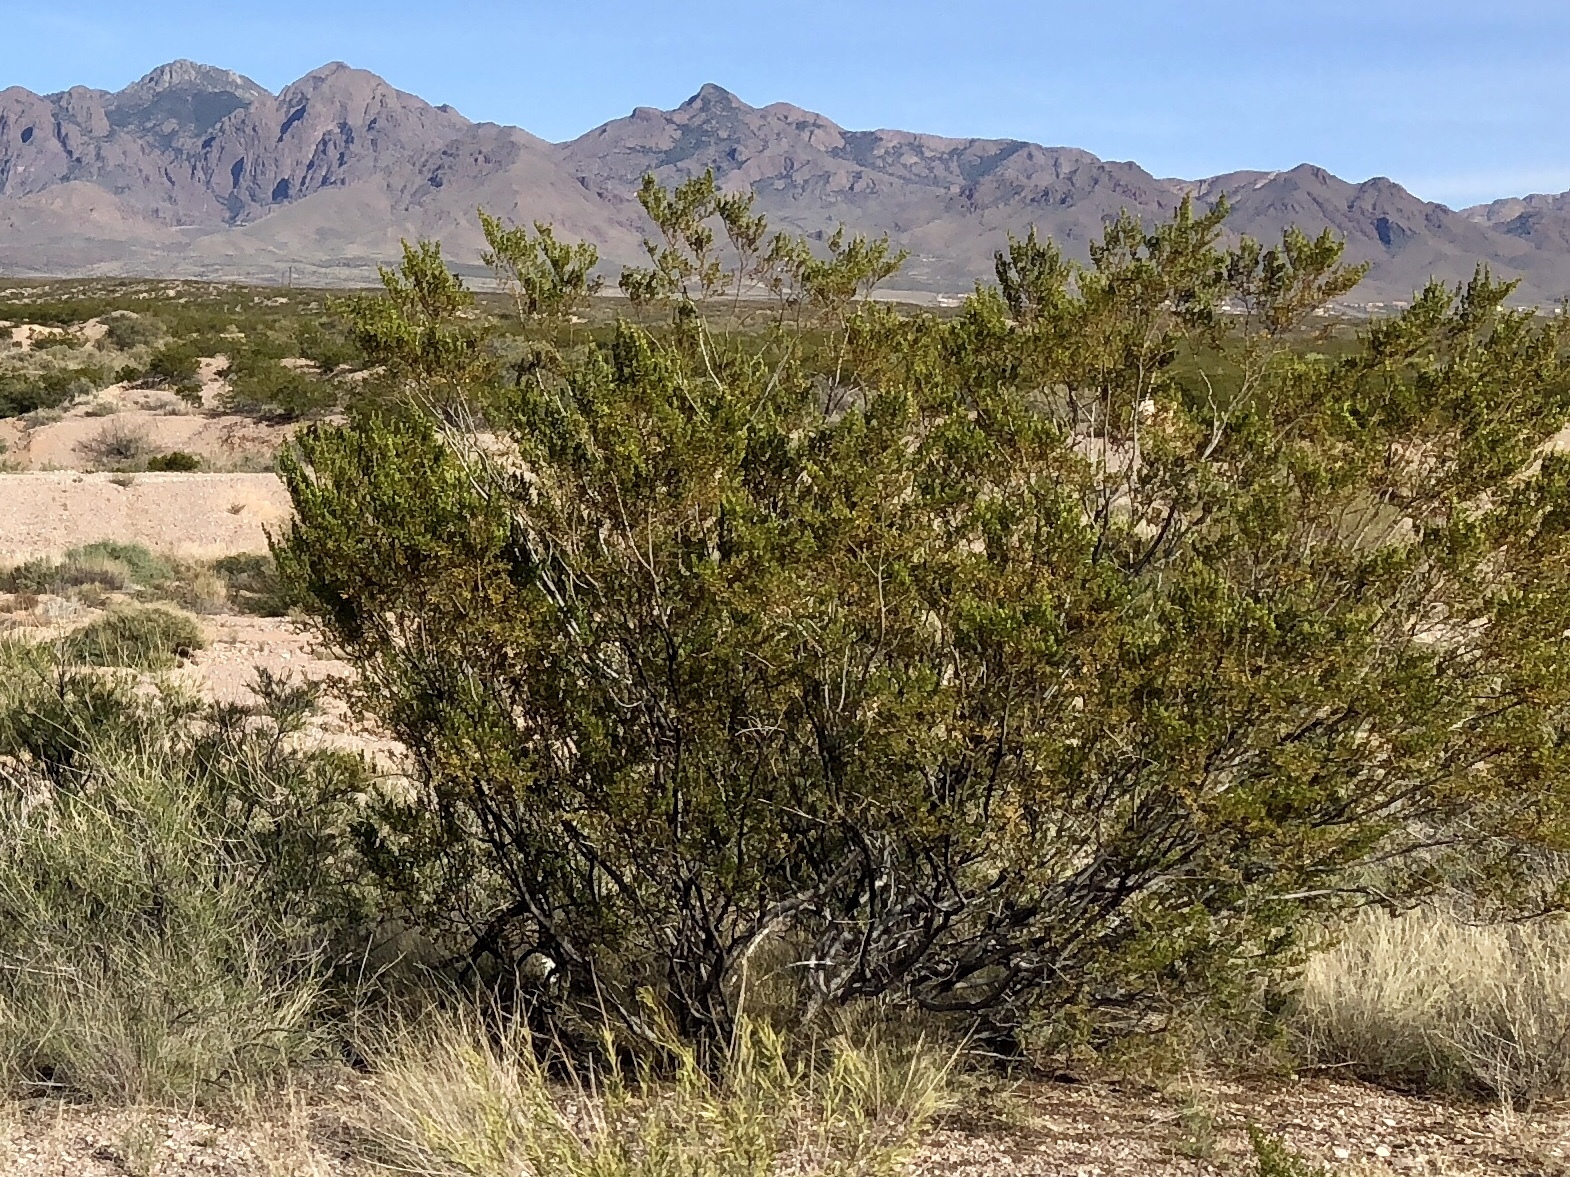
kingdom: Plantae
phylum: Tracheophyta
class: Magnoliopsida
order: Zygophyllales
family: Zygophyllaceae
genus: Larrea
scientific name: Larrea tridentata
